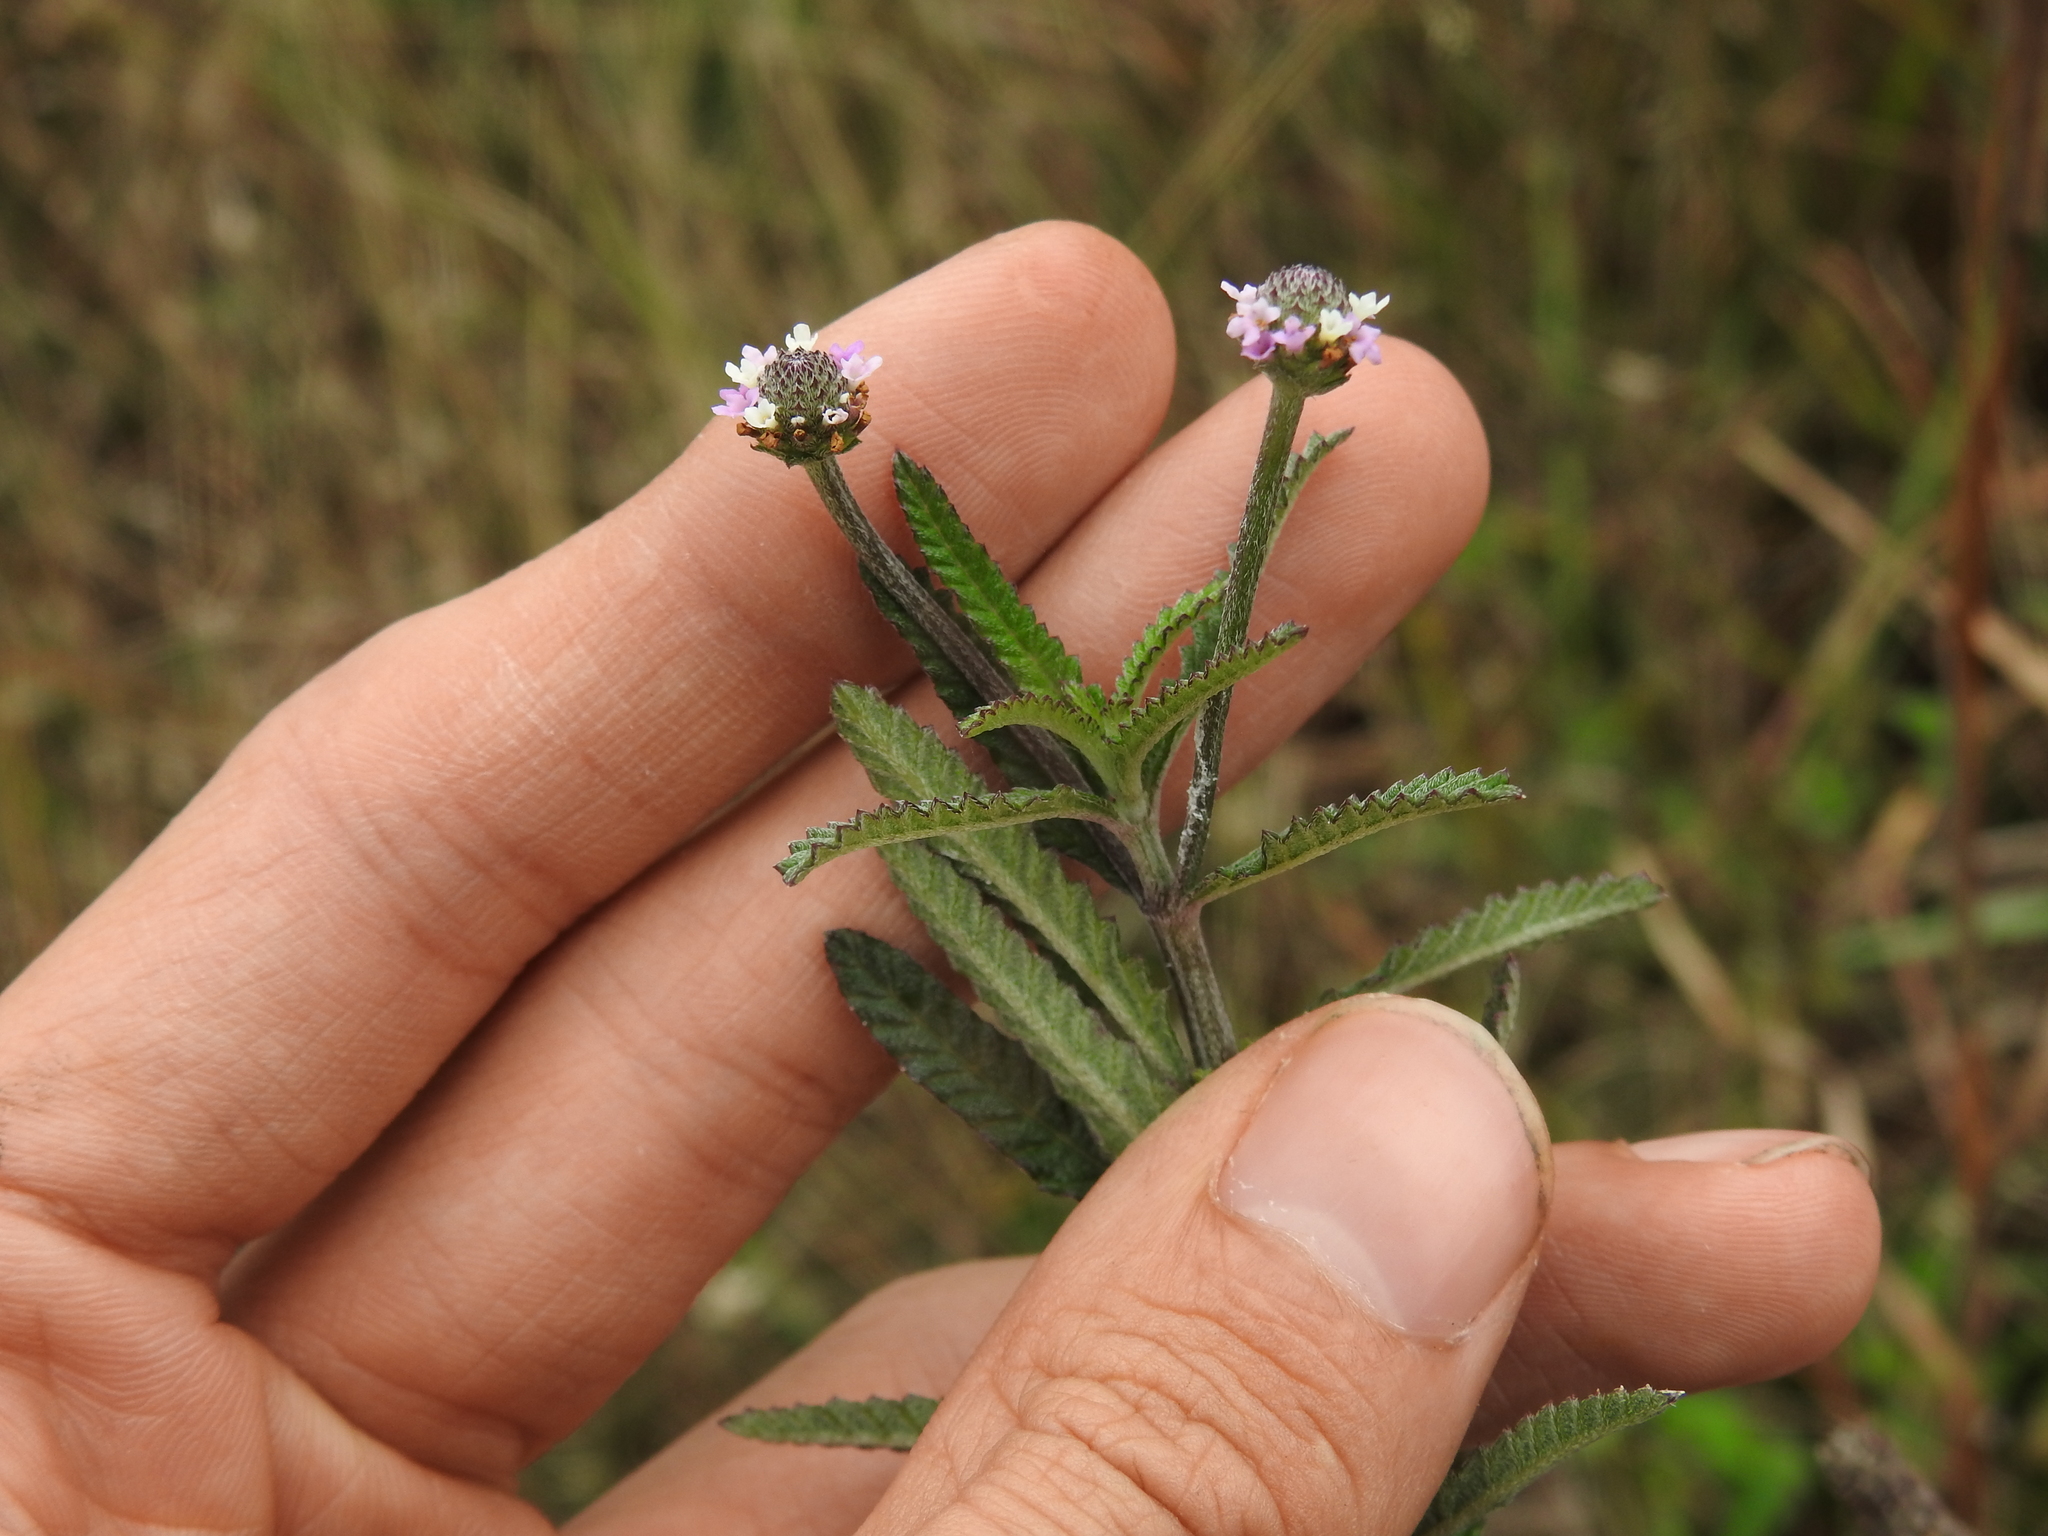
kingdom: Plantae
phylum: Tracheophyta
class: Magnoliopsida
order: Lamiales
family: Verbenaceae
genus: Lippia
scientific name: Lippia stoechadifolia
